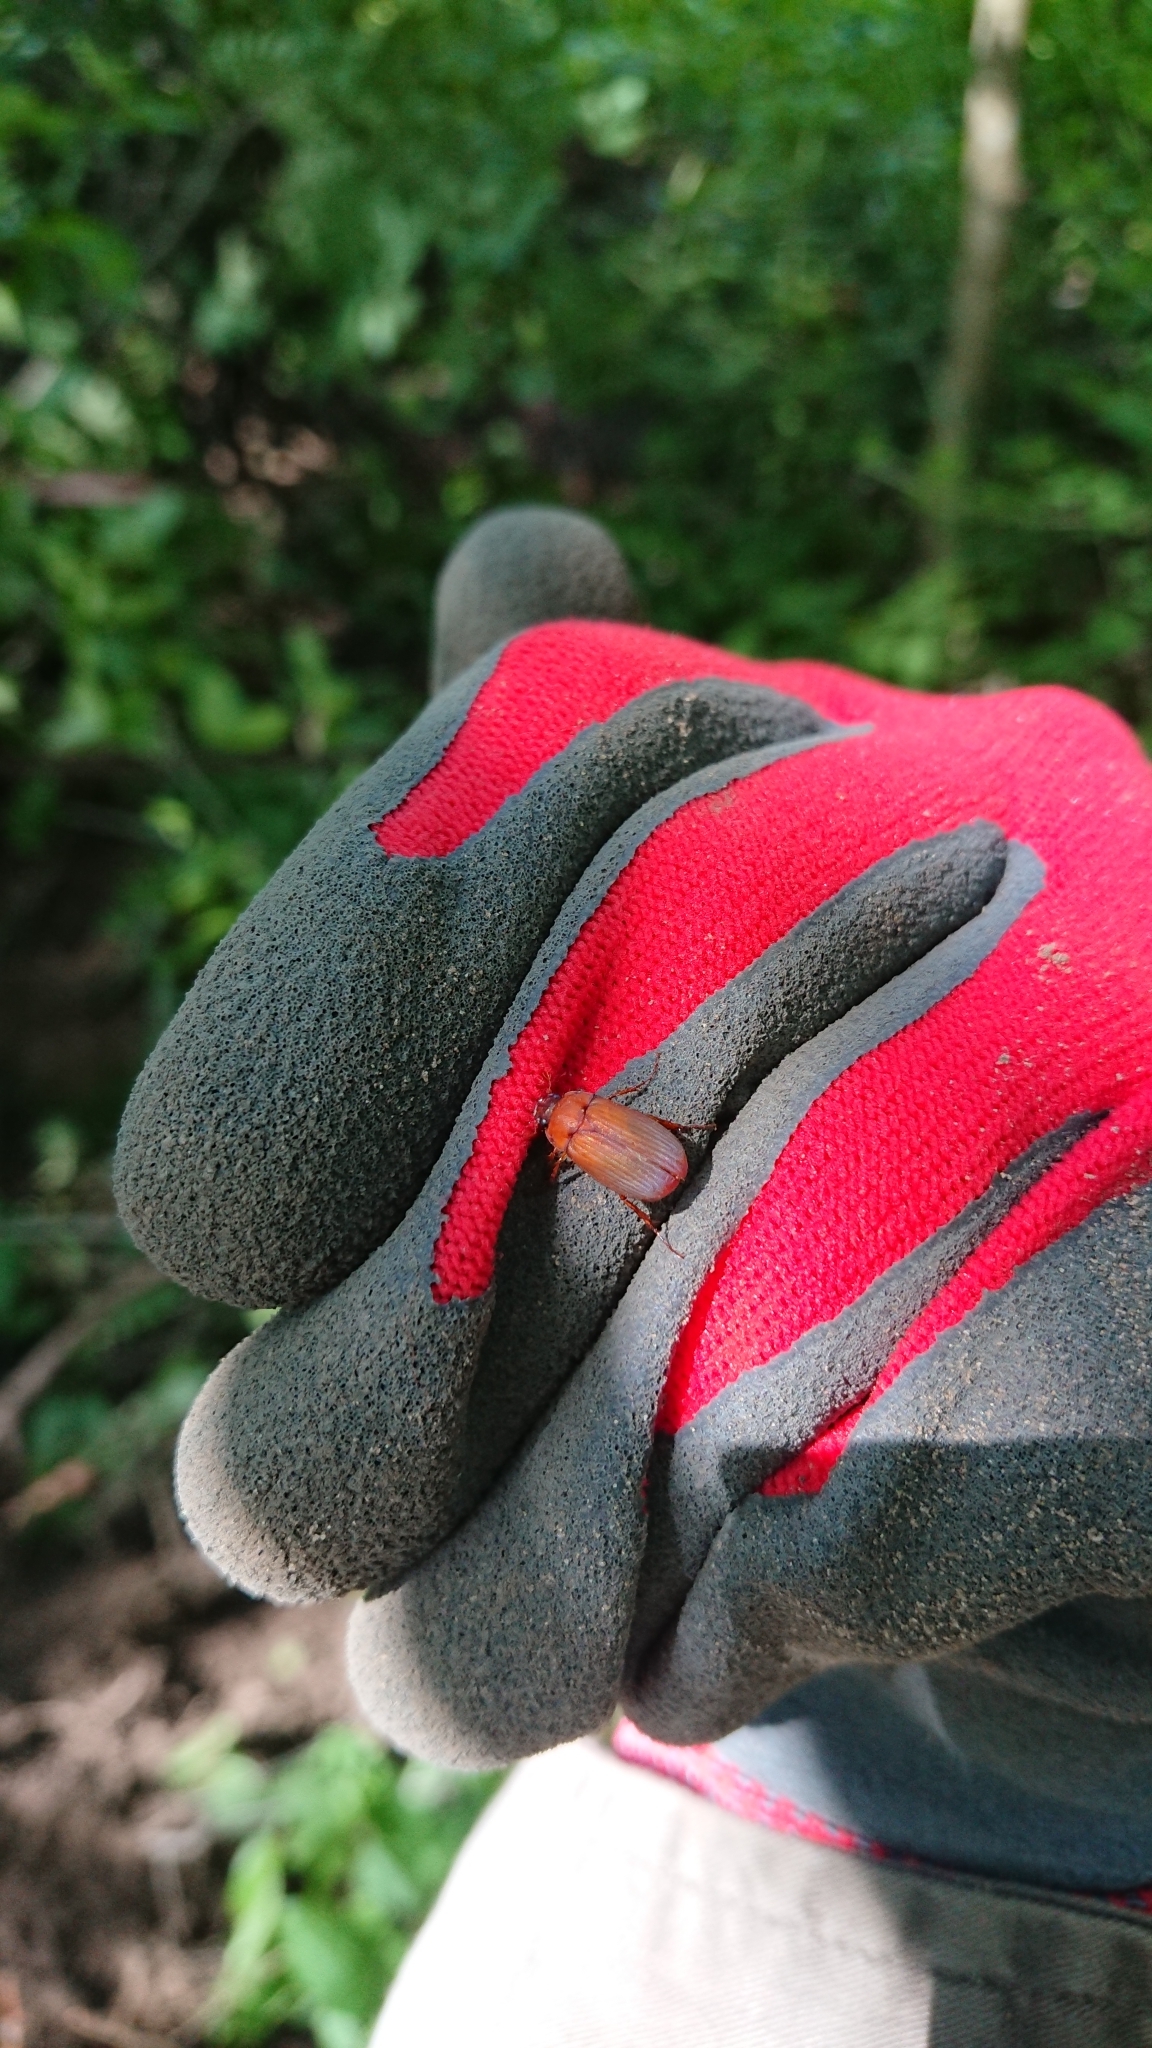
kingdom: Animalia
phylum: Arthropoda
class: Insecta
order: Coleoptera
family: Scarabaeidae
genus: Serica
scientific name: Serica brunnea
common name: Brown chafer
